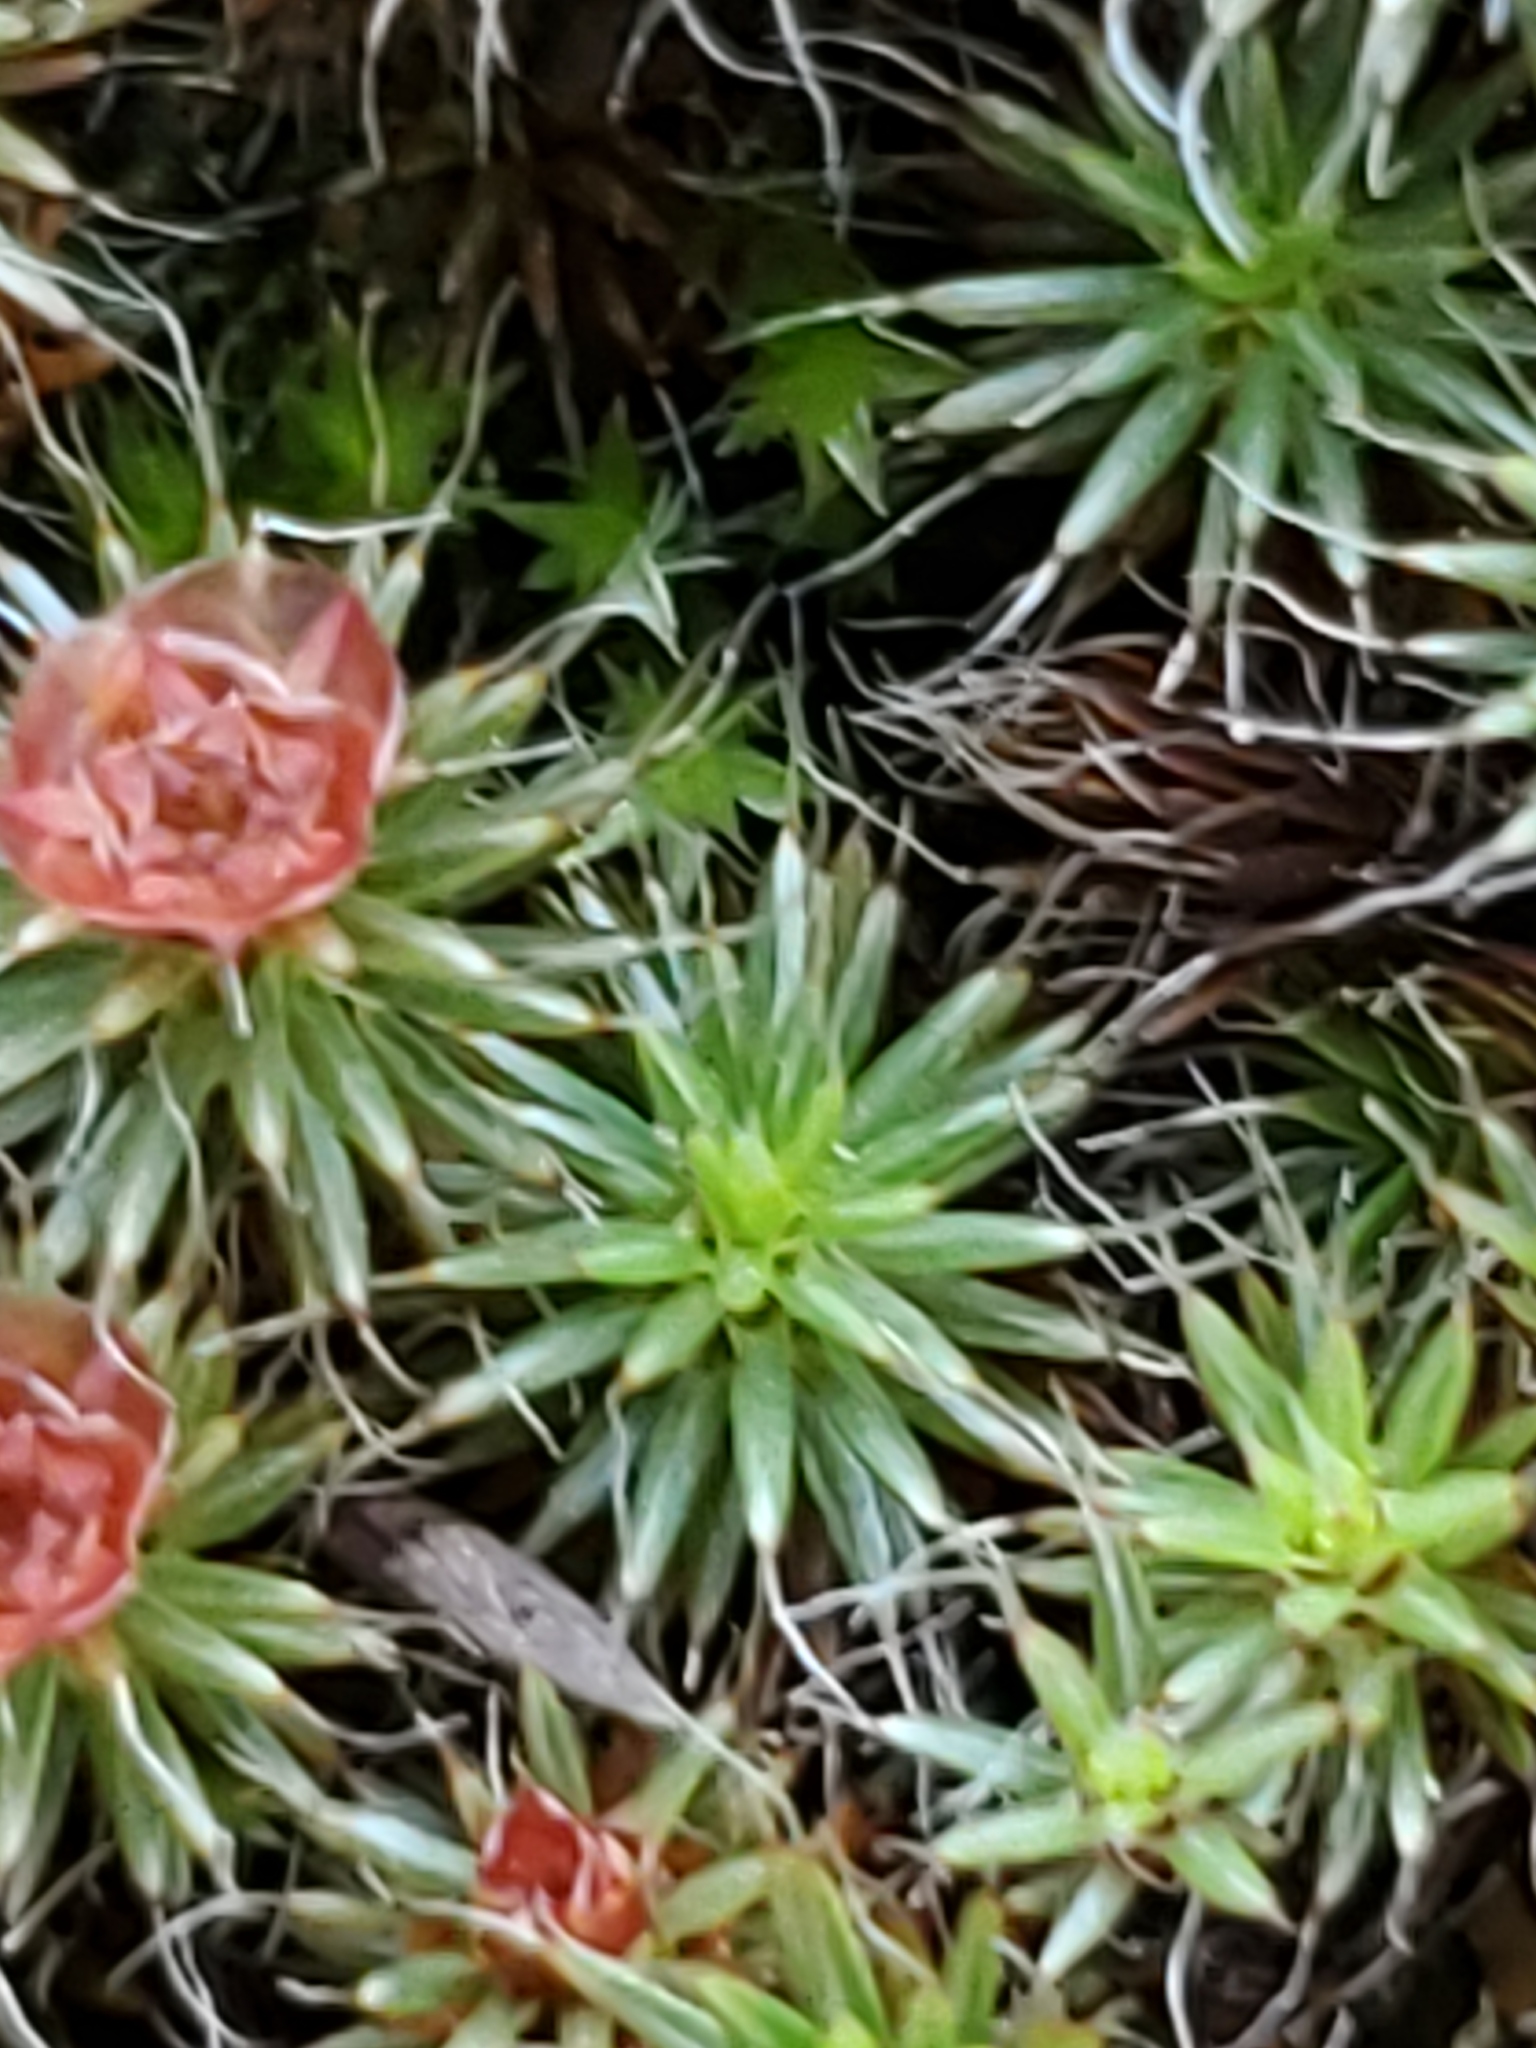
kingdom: Plantae
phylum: Bryophyta
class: Polytrichopsida
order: Polytrichales
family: Polytrichaceae
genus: Polytrichum
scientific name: Polytrichum piliferum
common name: Bristly haircap
